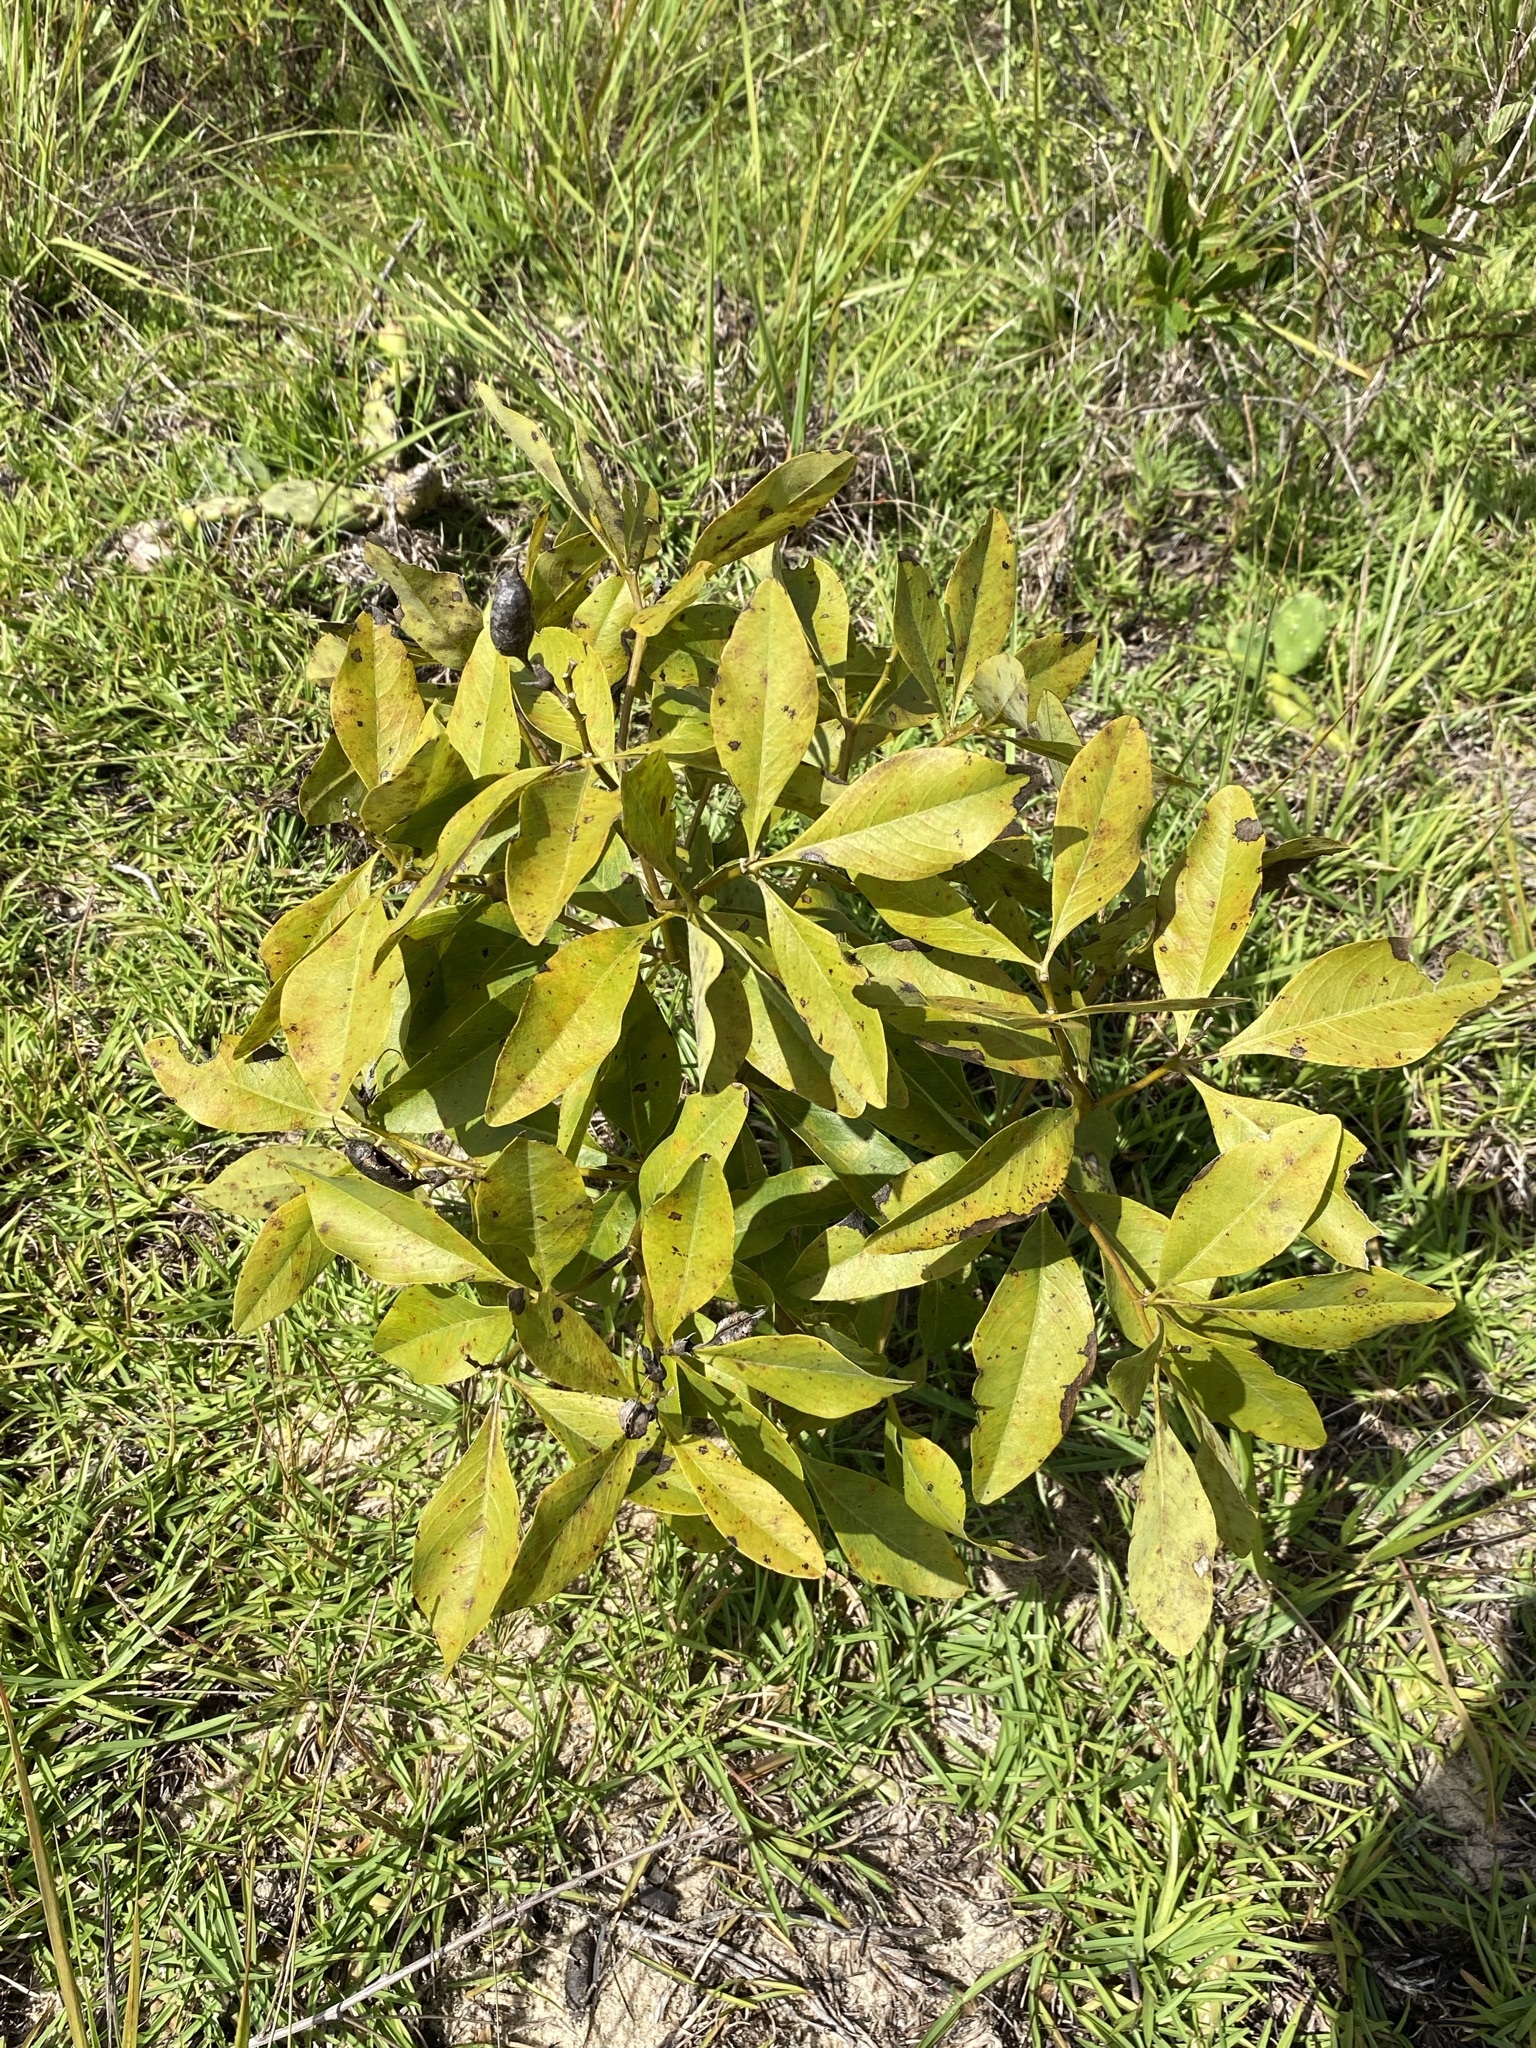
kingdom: Plantae
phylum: Tracheophyta
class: Magnoliopsida
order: Fabales
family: Fabaceae
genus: Baptisia
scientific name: Baptisia lanceolata
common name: Gopherweed
